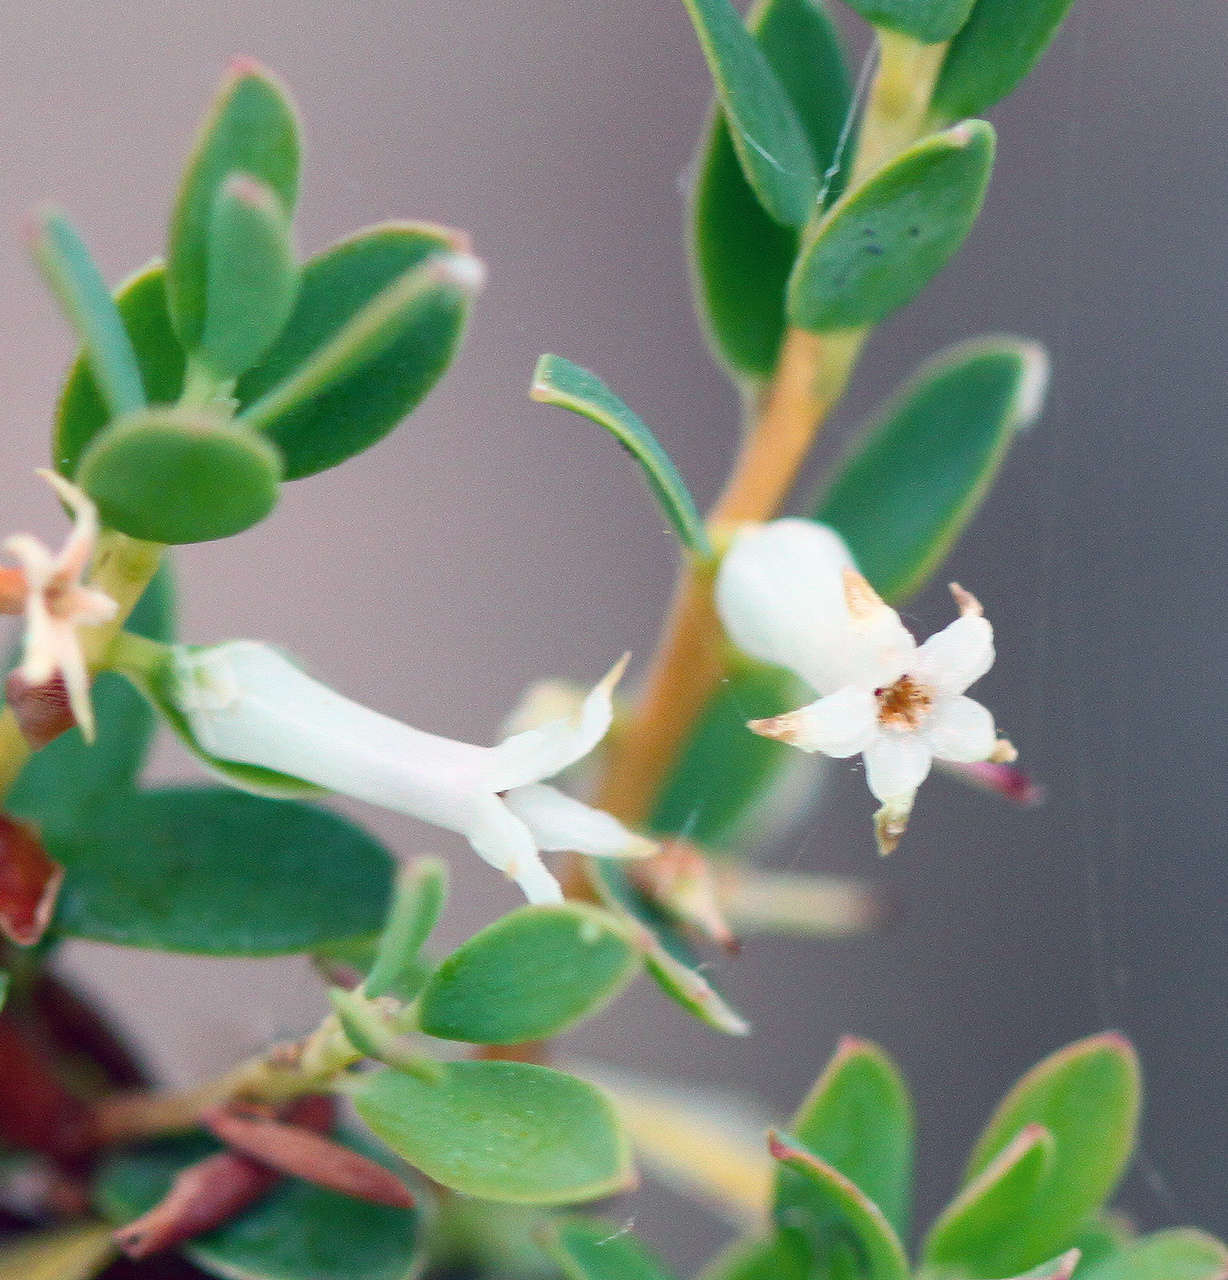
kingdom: Plantae
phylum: Tracheophyta
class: Magnoliopsida
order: Ericales
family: Ericaceae
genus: Brachyloma
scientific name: Brachyloma daphnoides
